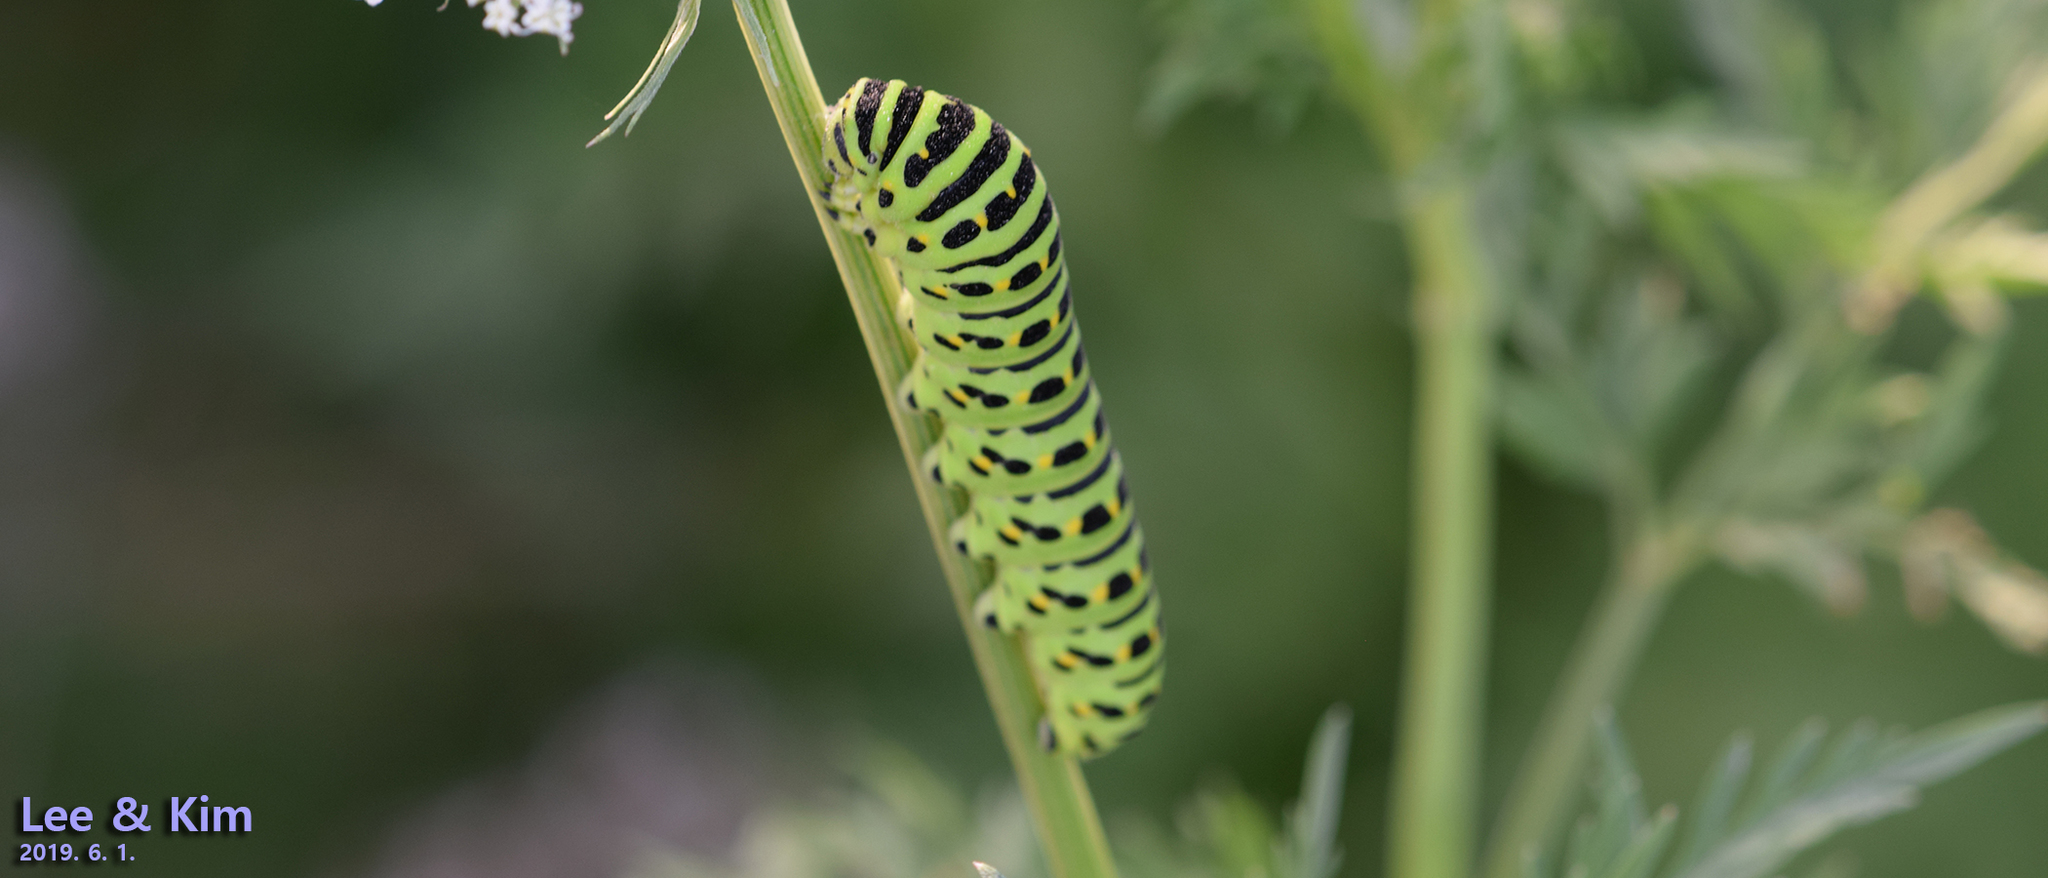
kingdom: Animalia
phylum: Arthropoda
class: Insecta
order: Lepidoptera
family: Papilionidae
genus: Papilio
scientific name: Papilio machaon
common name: Swallowtail
